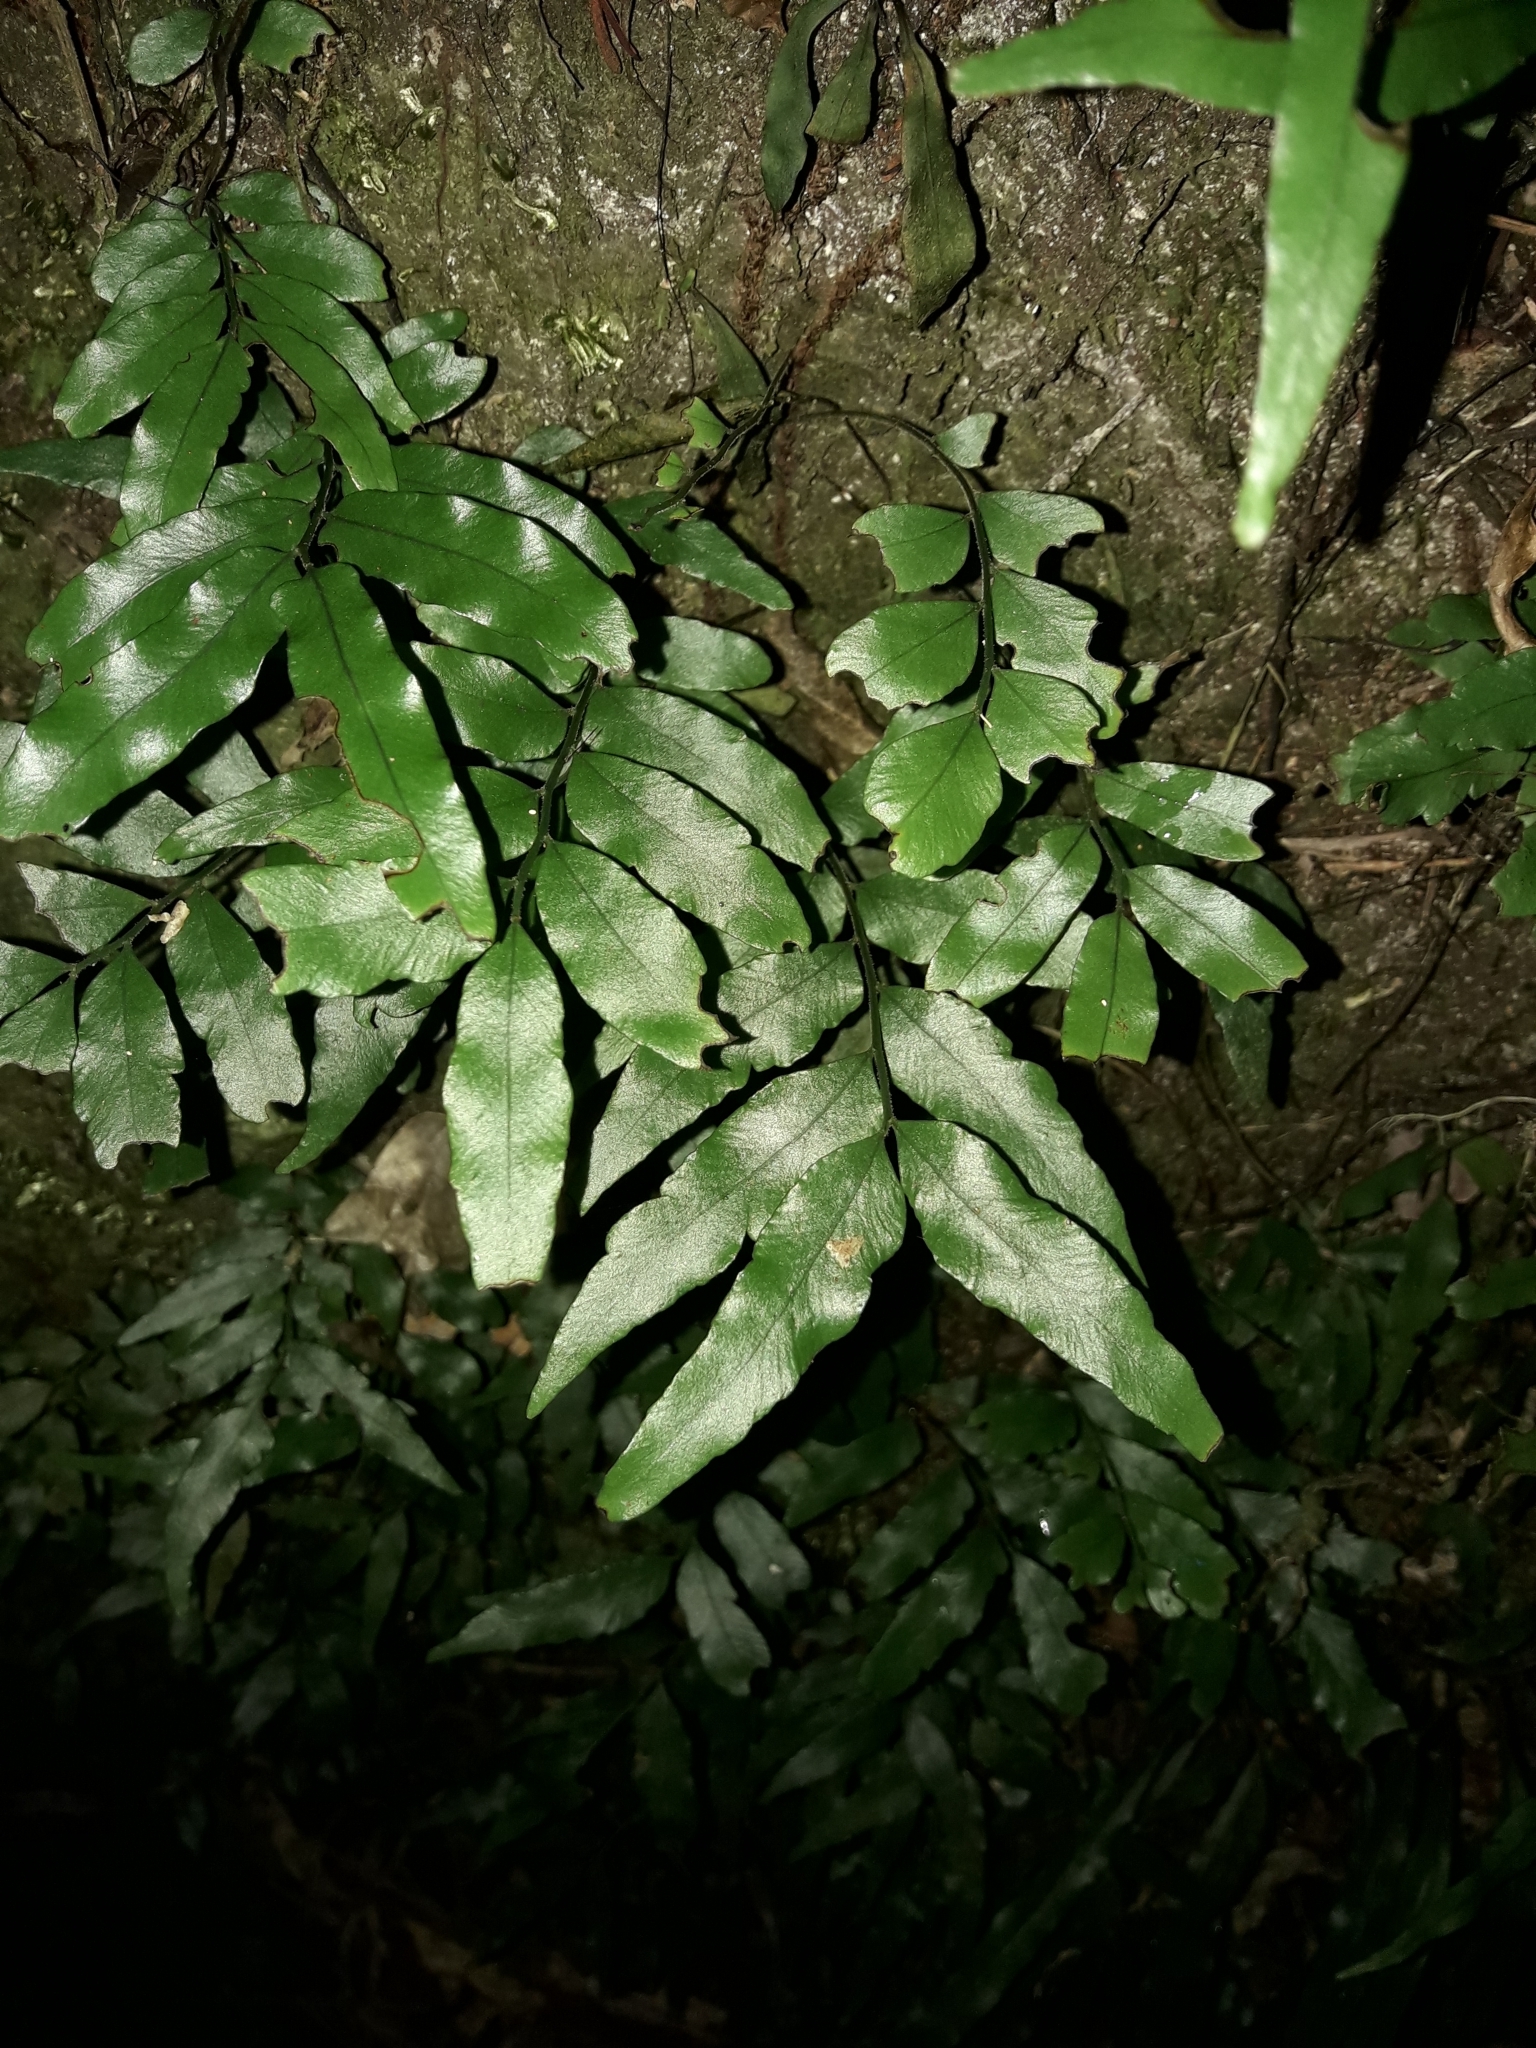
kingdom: Plantae
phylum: Tracheophyta
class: Polypodiopsida
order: Polypodiales
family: Tectariaceae
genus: Arthropteris
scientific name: Arthropteris tenella
